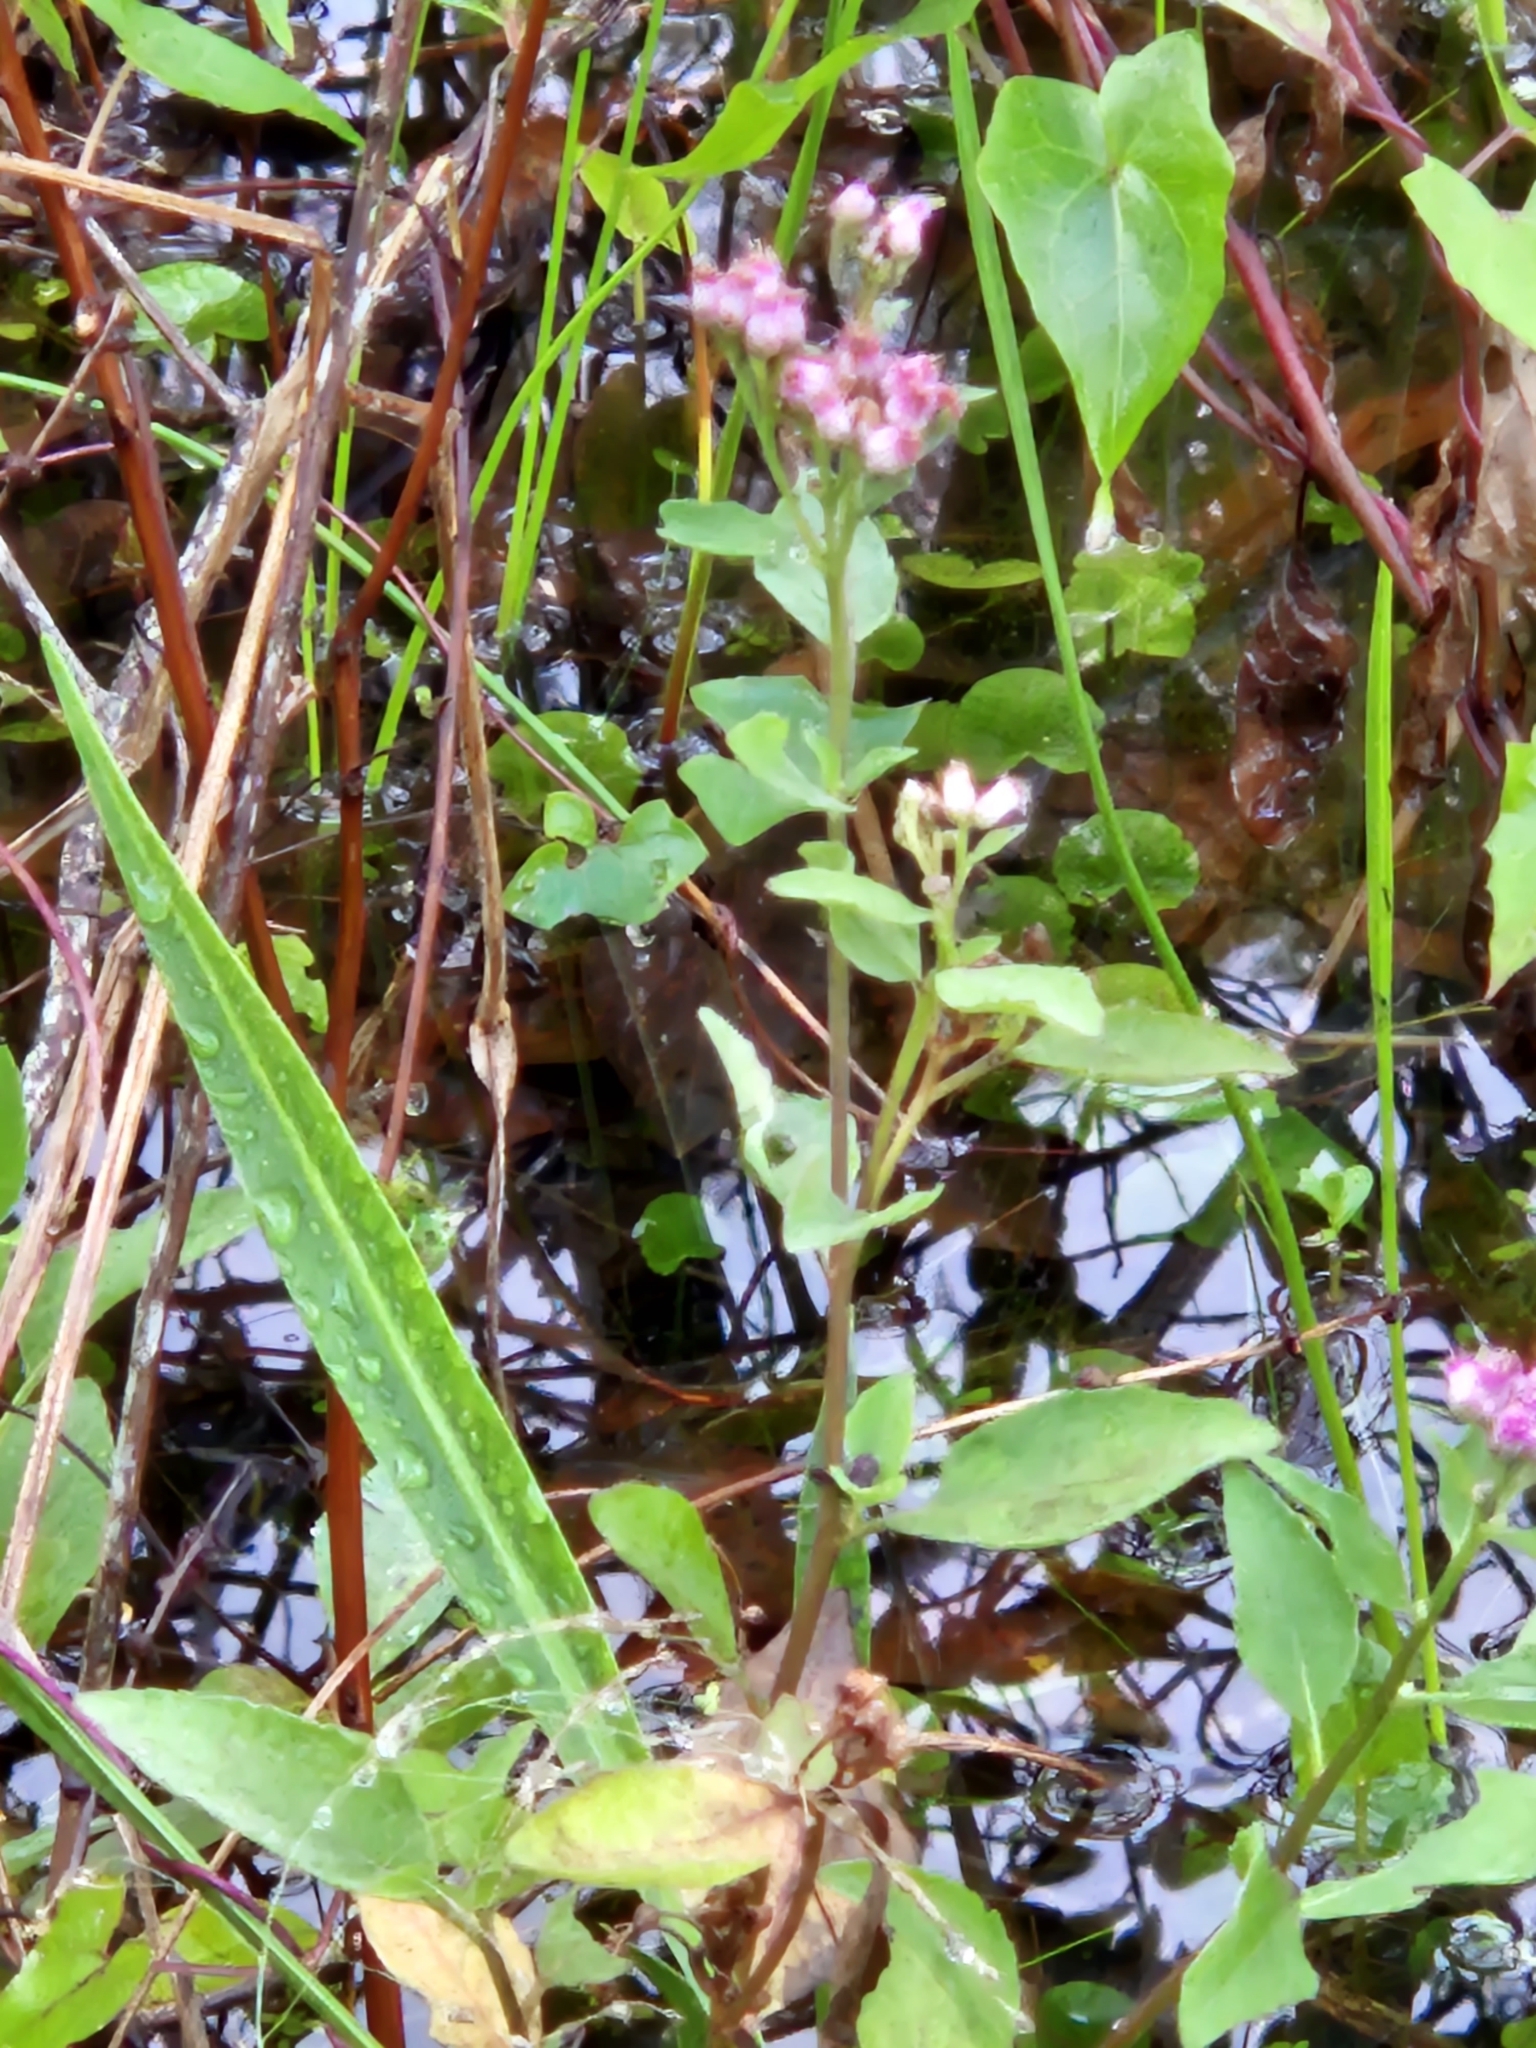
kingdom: Plantae
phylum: Tracheophyta
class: Magnoliopsida
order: Asterales
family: Asteraceae
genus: Pluchea
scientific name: Pluchea odorata
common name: Saltmarsh fleabane
